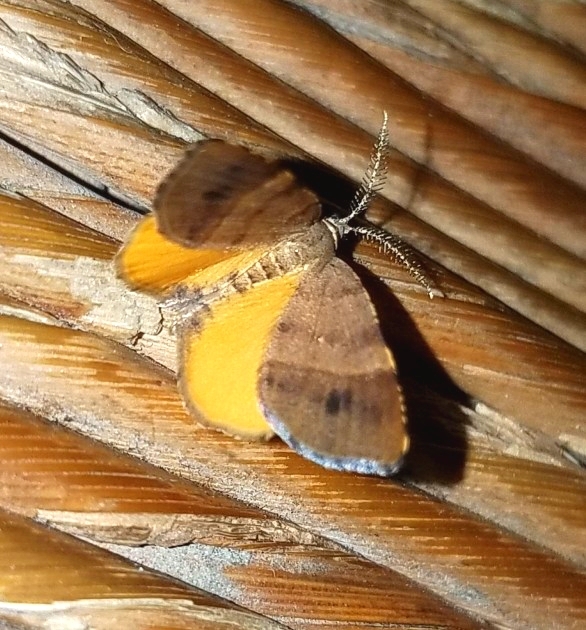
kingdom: Animalia
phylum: Arthropoda
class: Insecta
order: Lepidoptera
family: Geometridae
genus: Mellilla
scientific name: Mellilla xanthometata
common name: Orange wing moth
